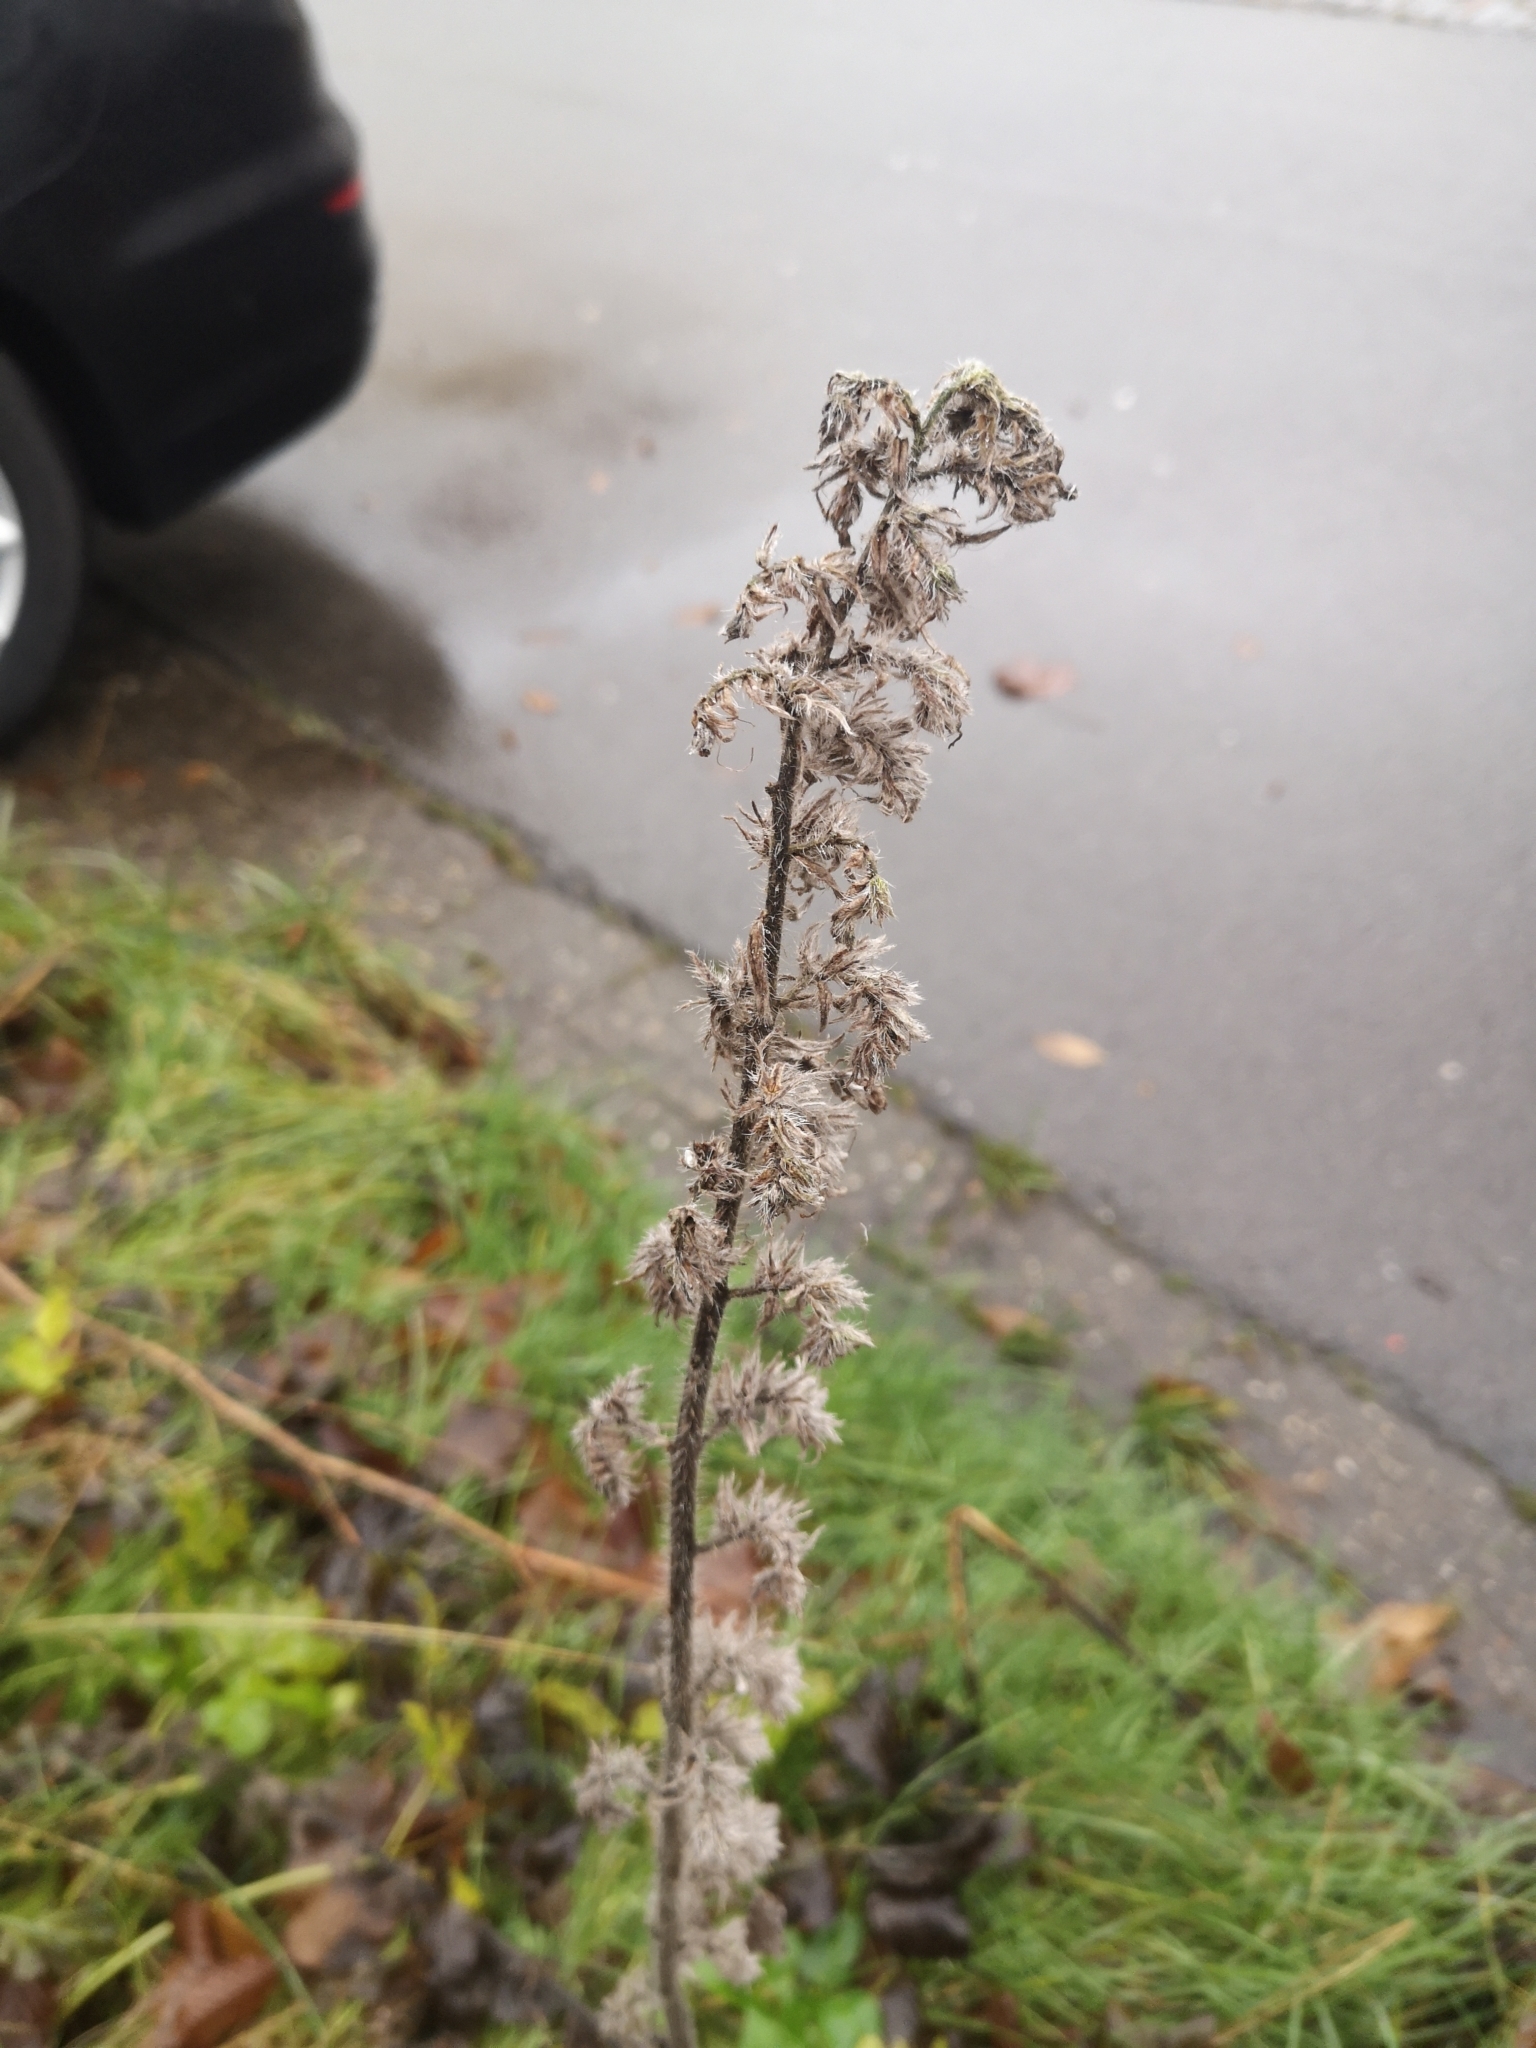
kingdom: Plantae
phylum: Tracheophyta
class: Magnoliopsida
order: Boraginales
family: Boraginaceae
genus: Echium
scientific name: Echium vulgare
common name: Common viper's bugloss
